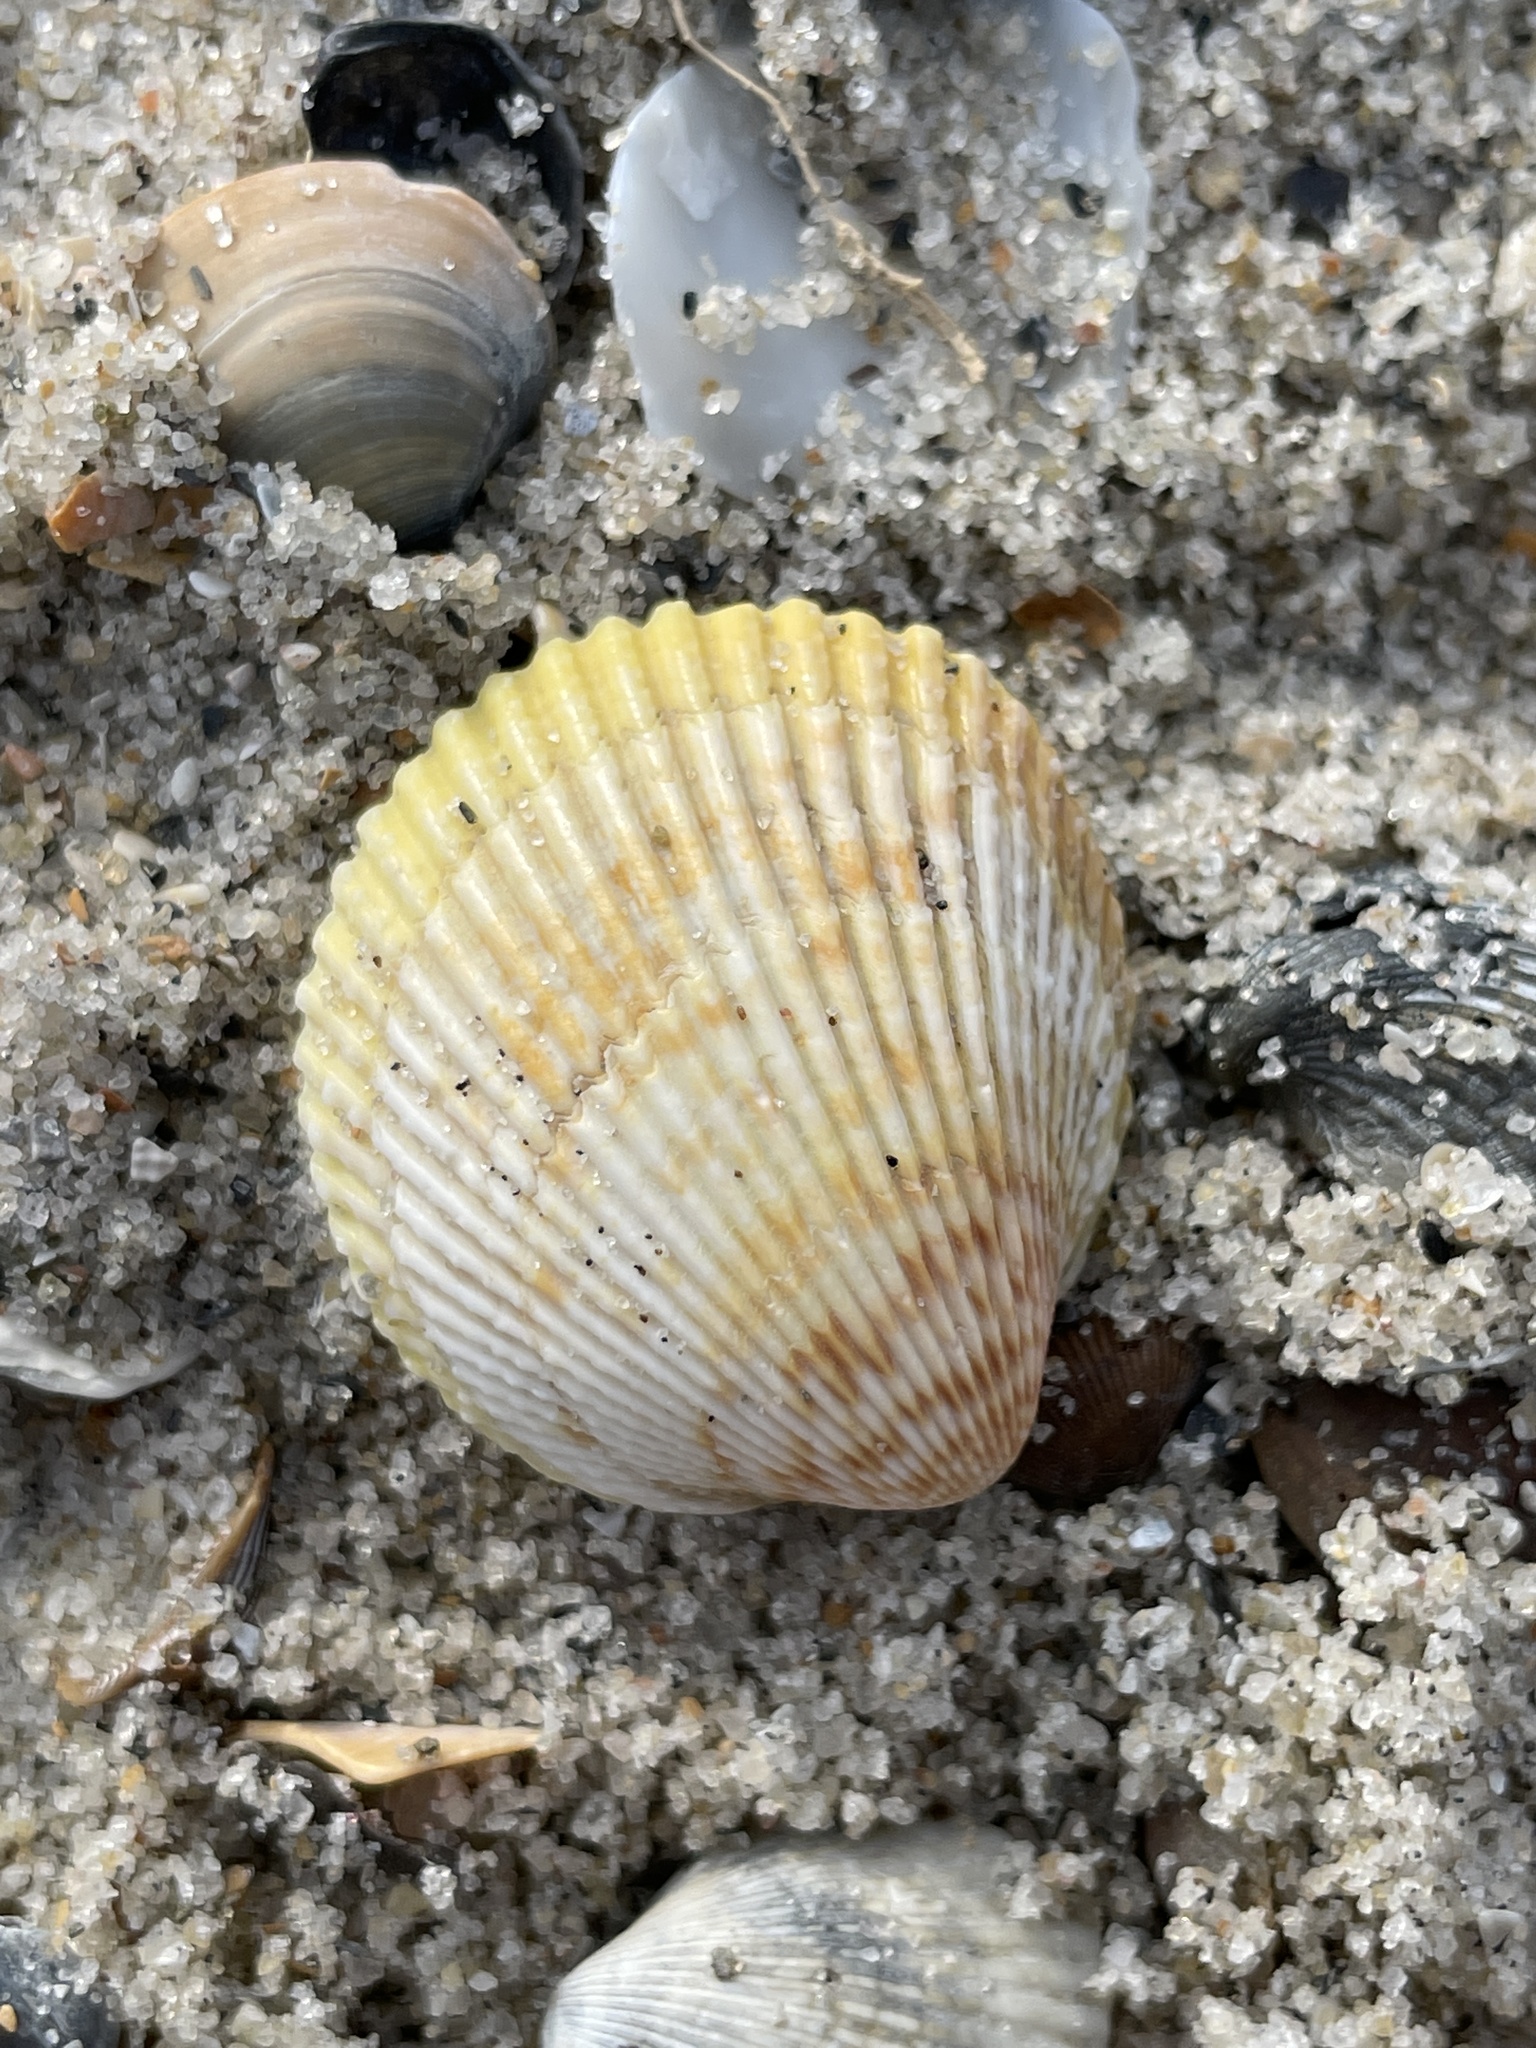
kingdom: Animalia
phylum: Mollusca
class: Bivalvia
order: Cardiida
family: Cardiidae
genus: Dallocardia
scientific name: Dallocardia muricata
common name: Yellow pricklycockle
